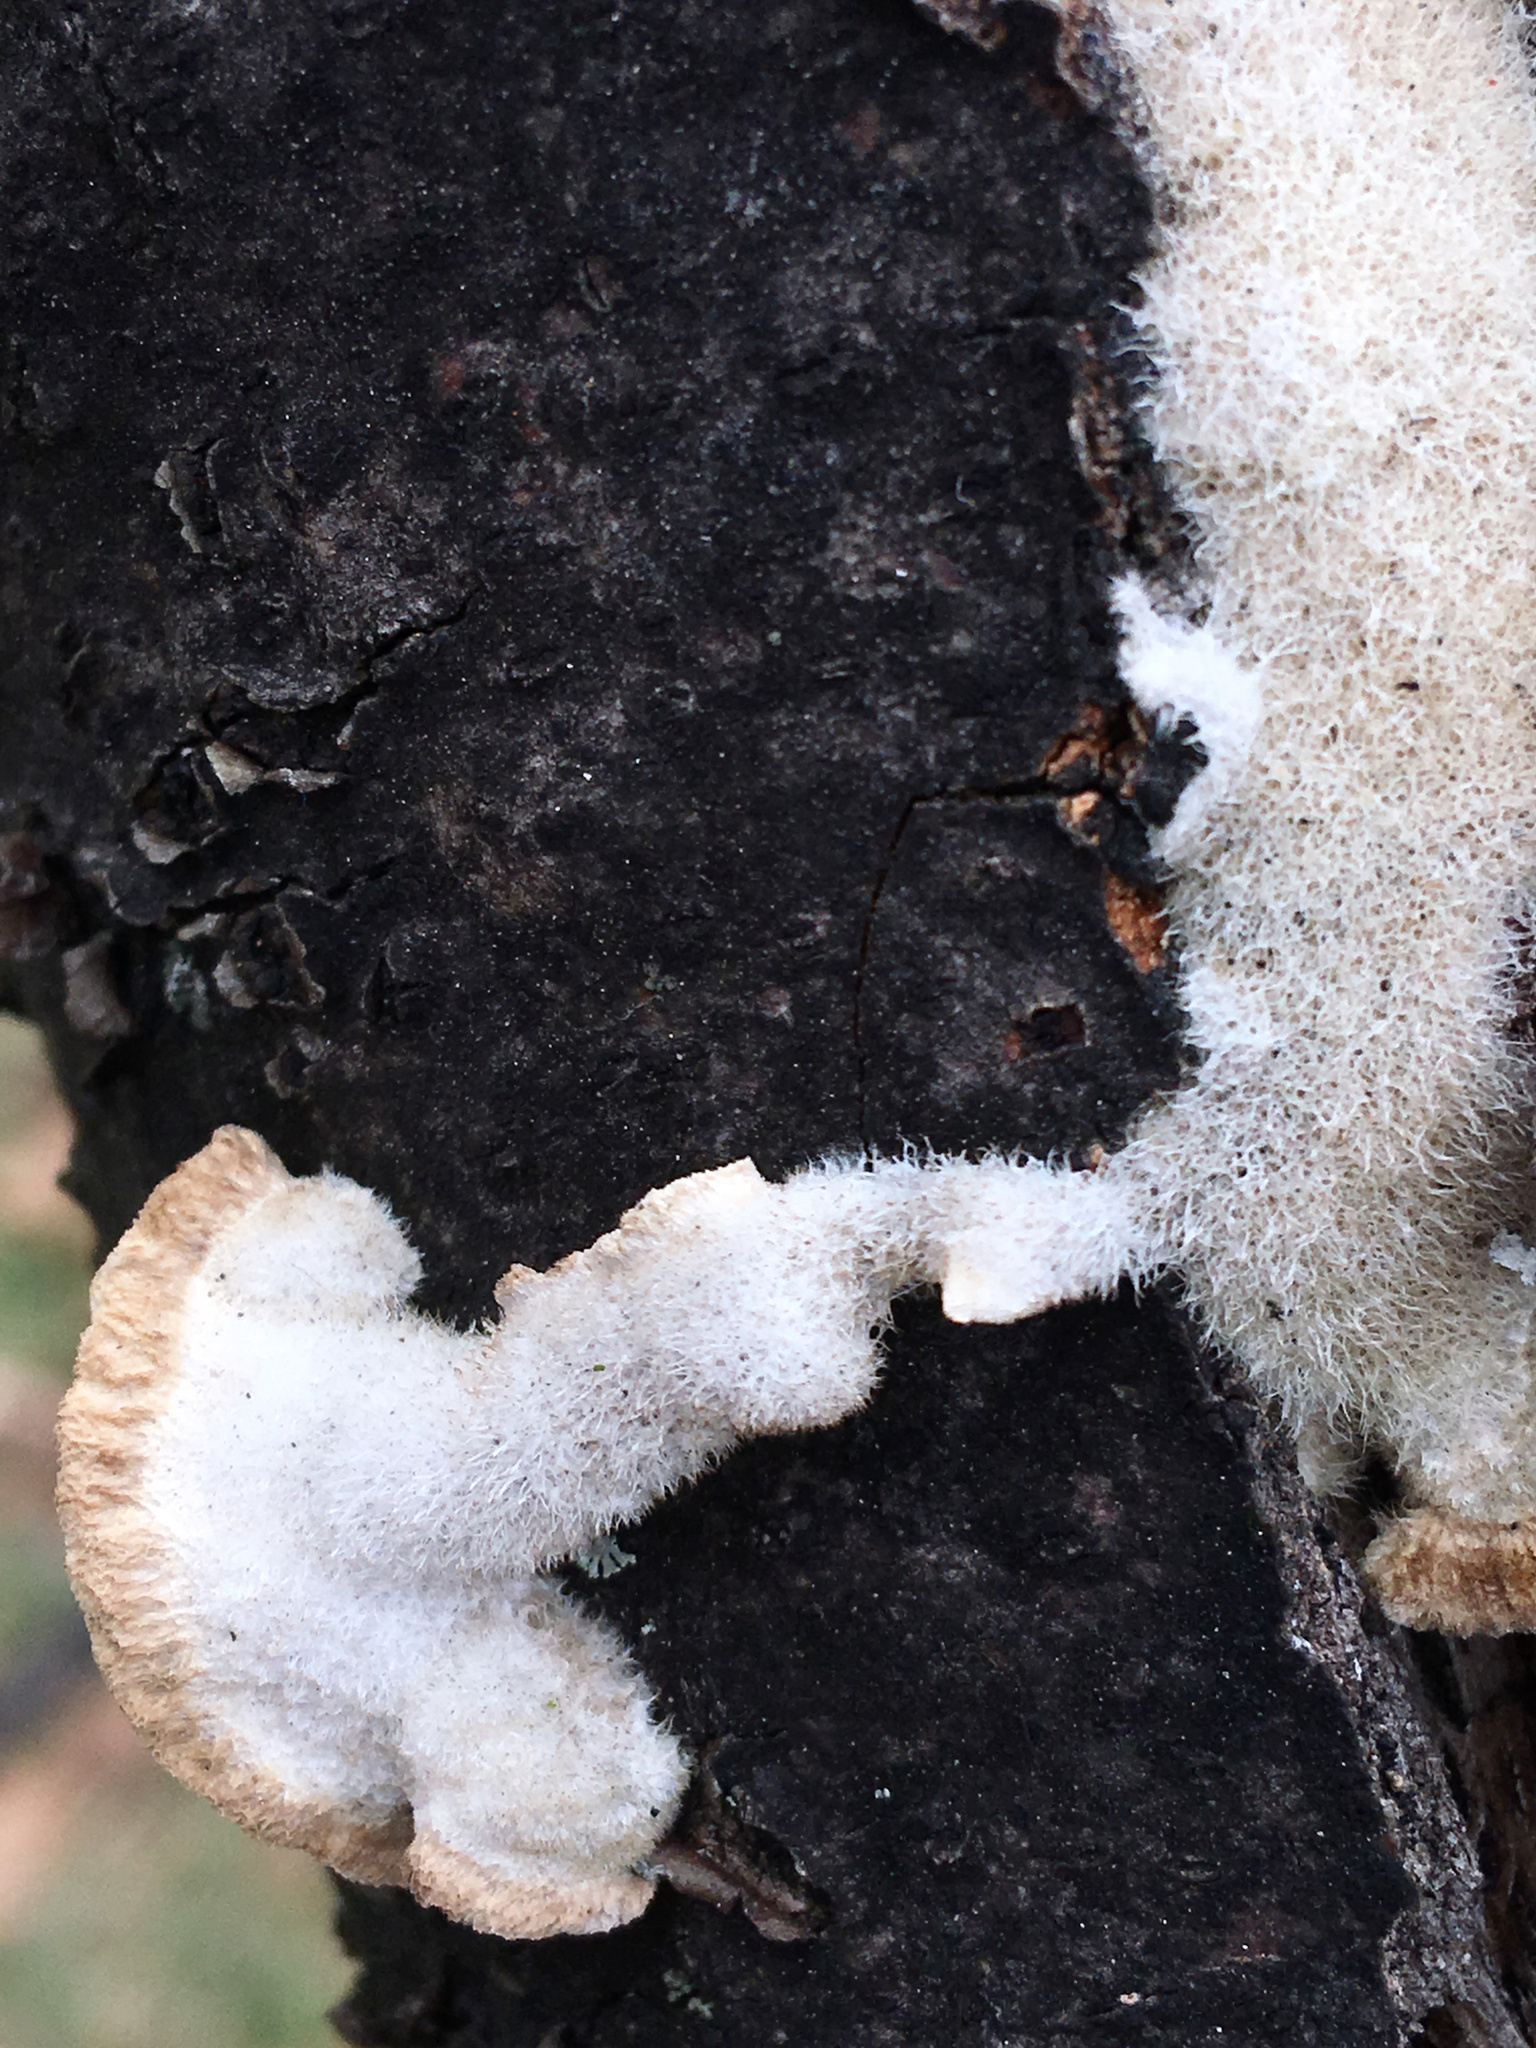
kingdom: Fungi
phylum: Basidiomycota
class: Agaricomycetes
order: Polyporales
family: Polyporaceae
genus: Trametes
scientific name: Trametes hirsuta
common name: Hairy bracket
